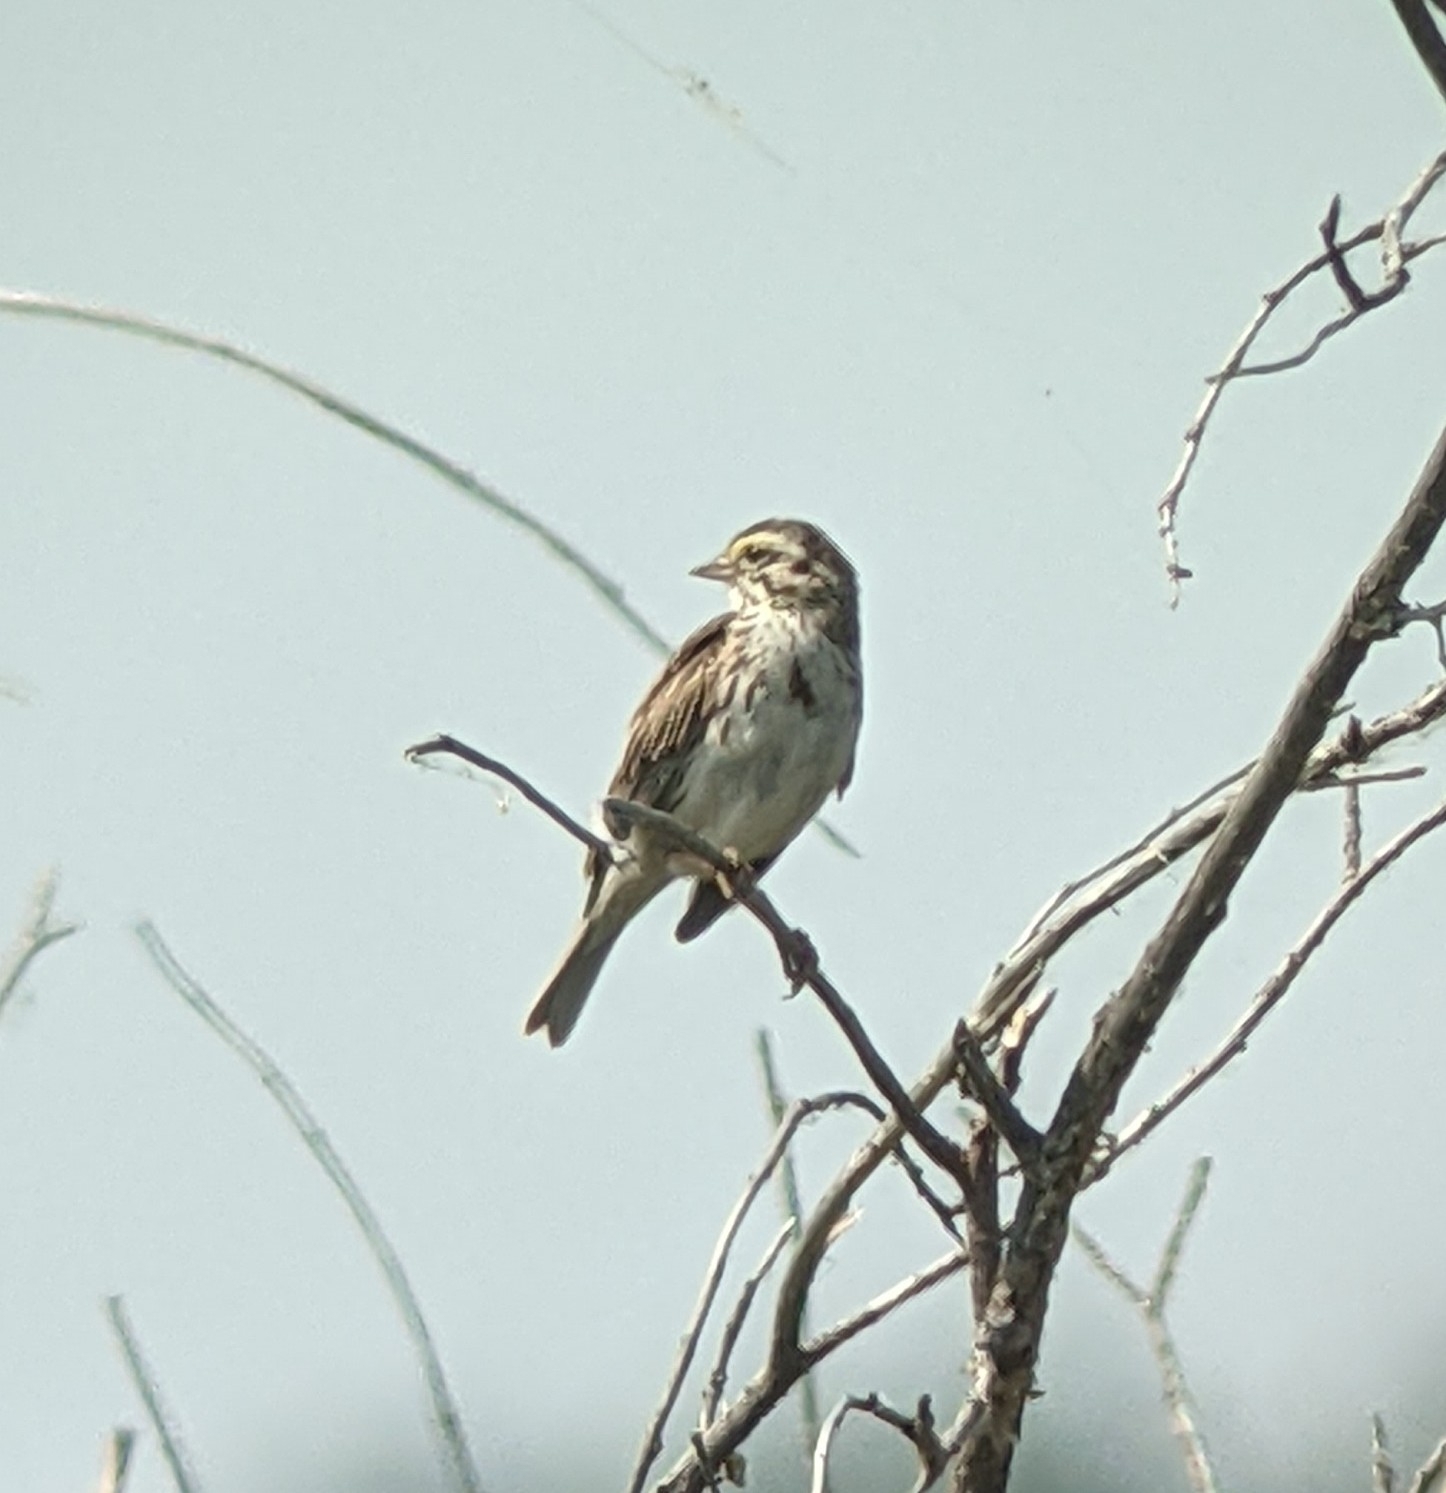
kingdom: Animalia
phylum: Chordata
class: Aves
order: Passeriformes
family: Passerellidae
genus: Passerculus
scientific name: Passerculus sandwichensis
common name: Savannah sparrow
